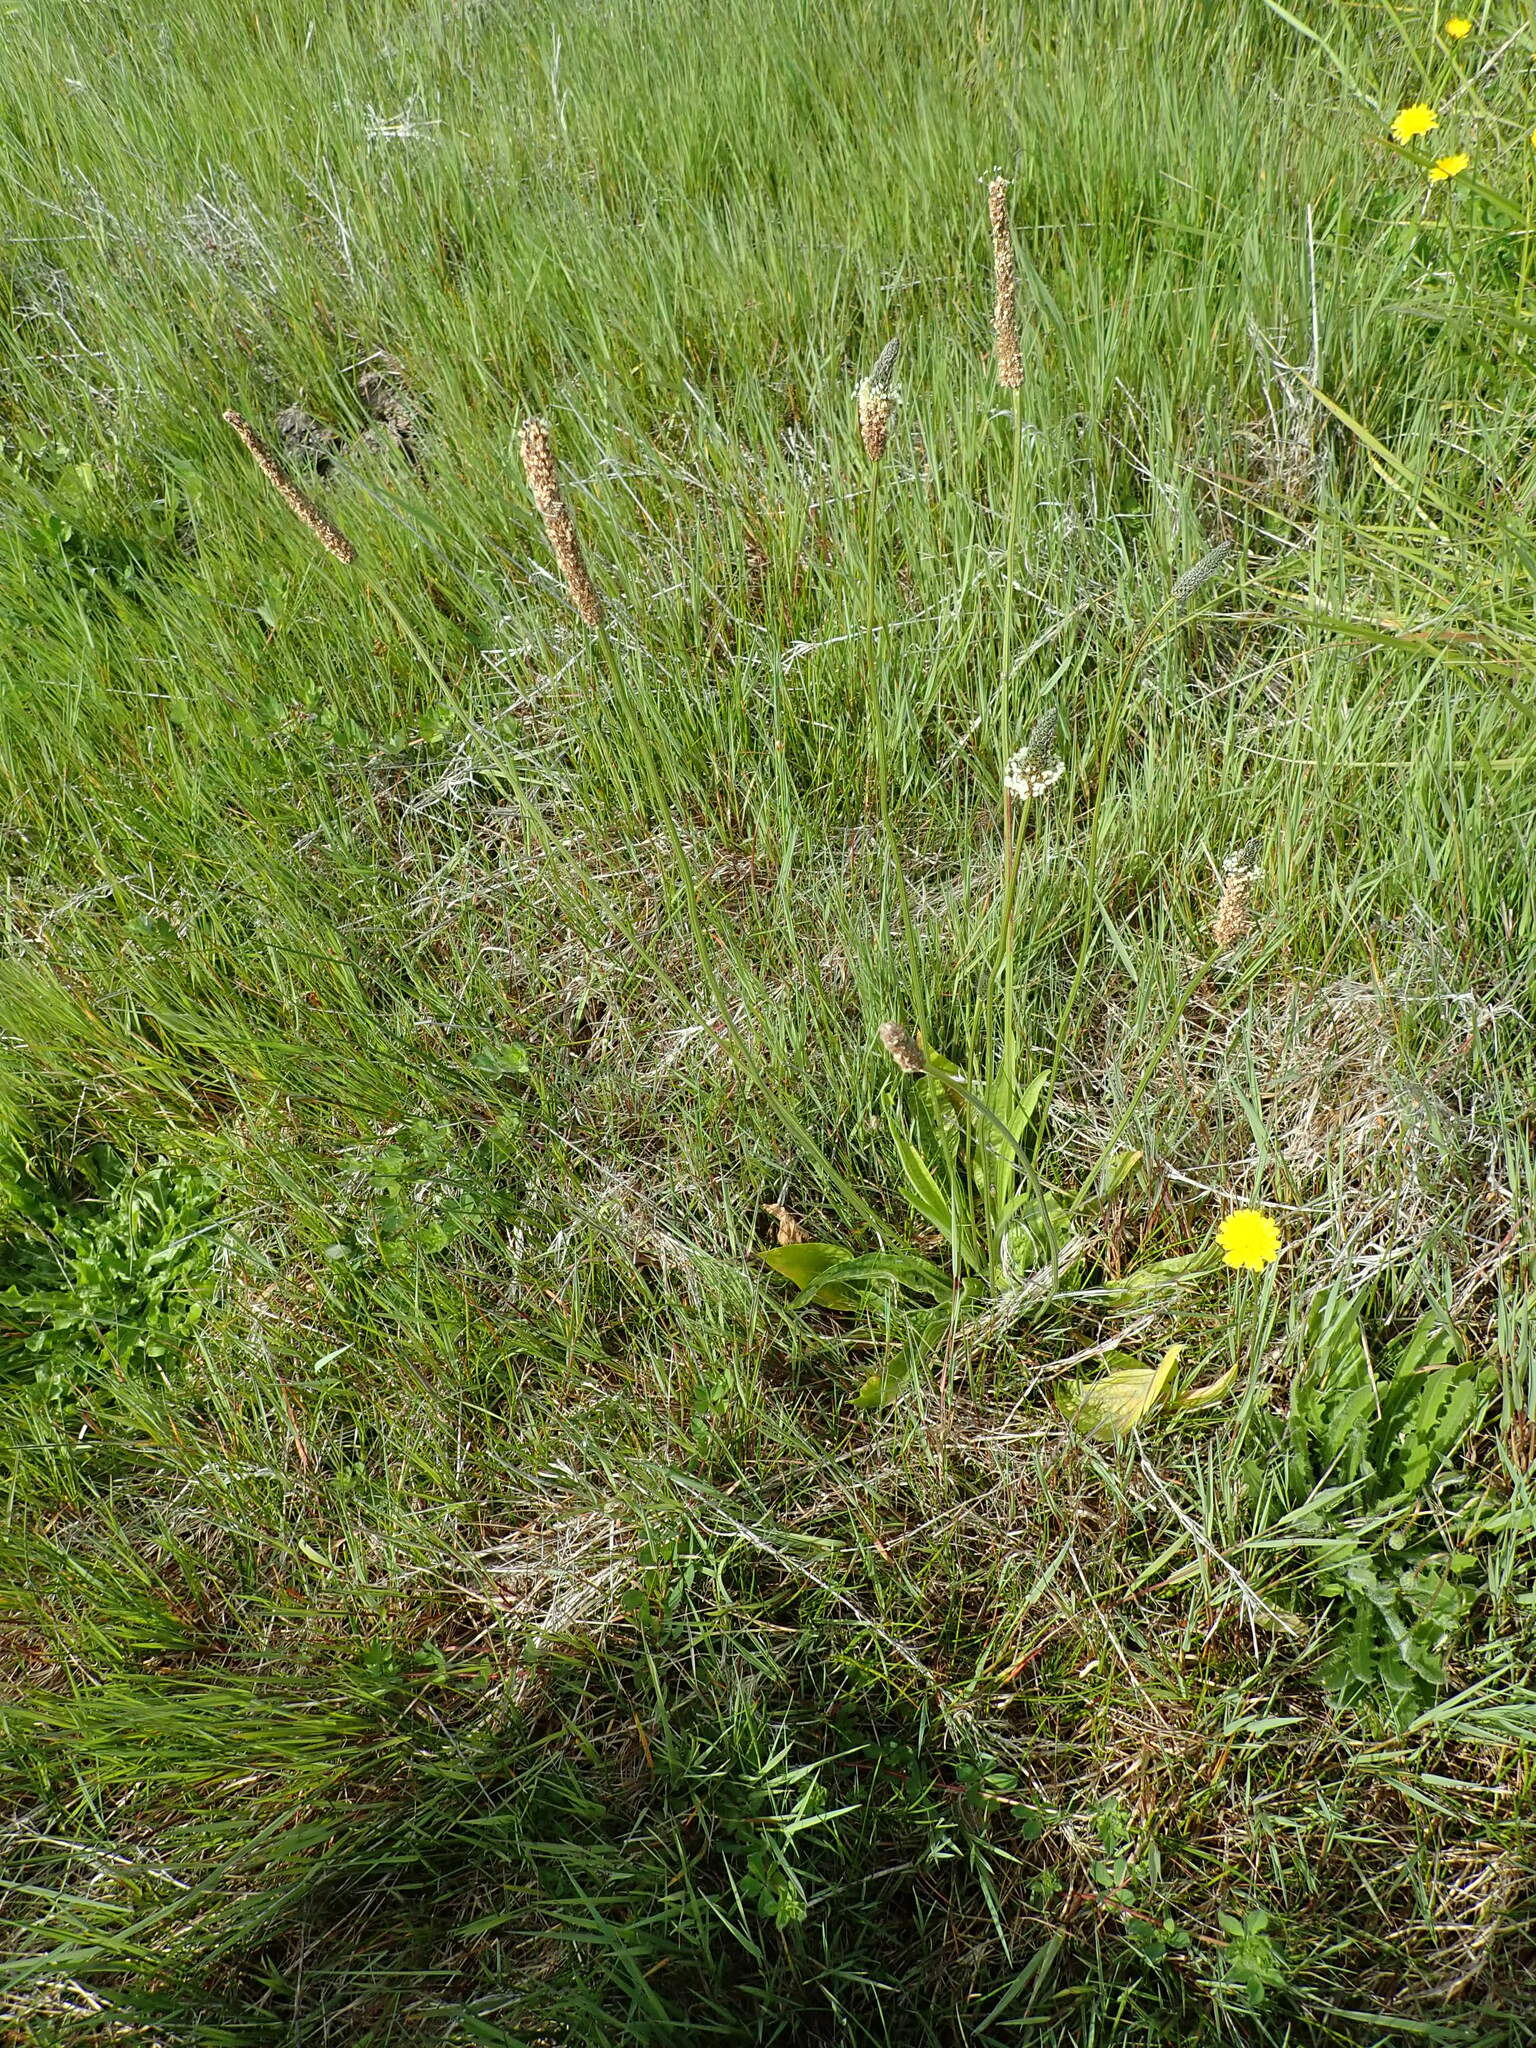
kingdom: Plantae
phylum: Tracheophyta
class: Magnoliopsida
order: Lamiales
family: Plantaginaceae
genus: Plantago
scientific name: Plantago lanceolata
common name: Ribwort plantain
